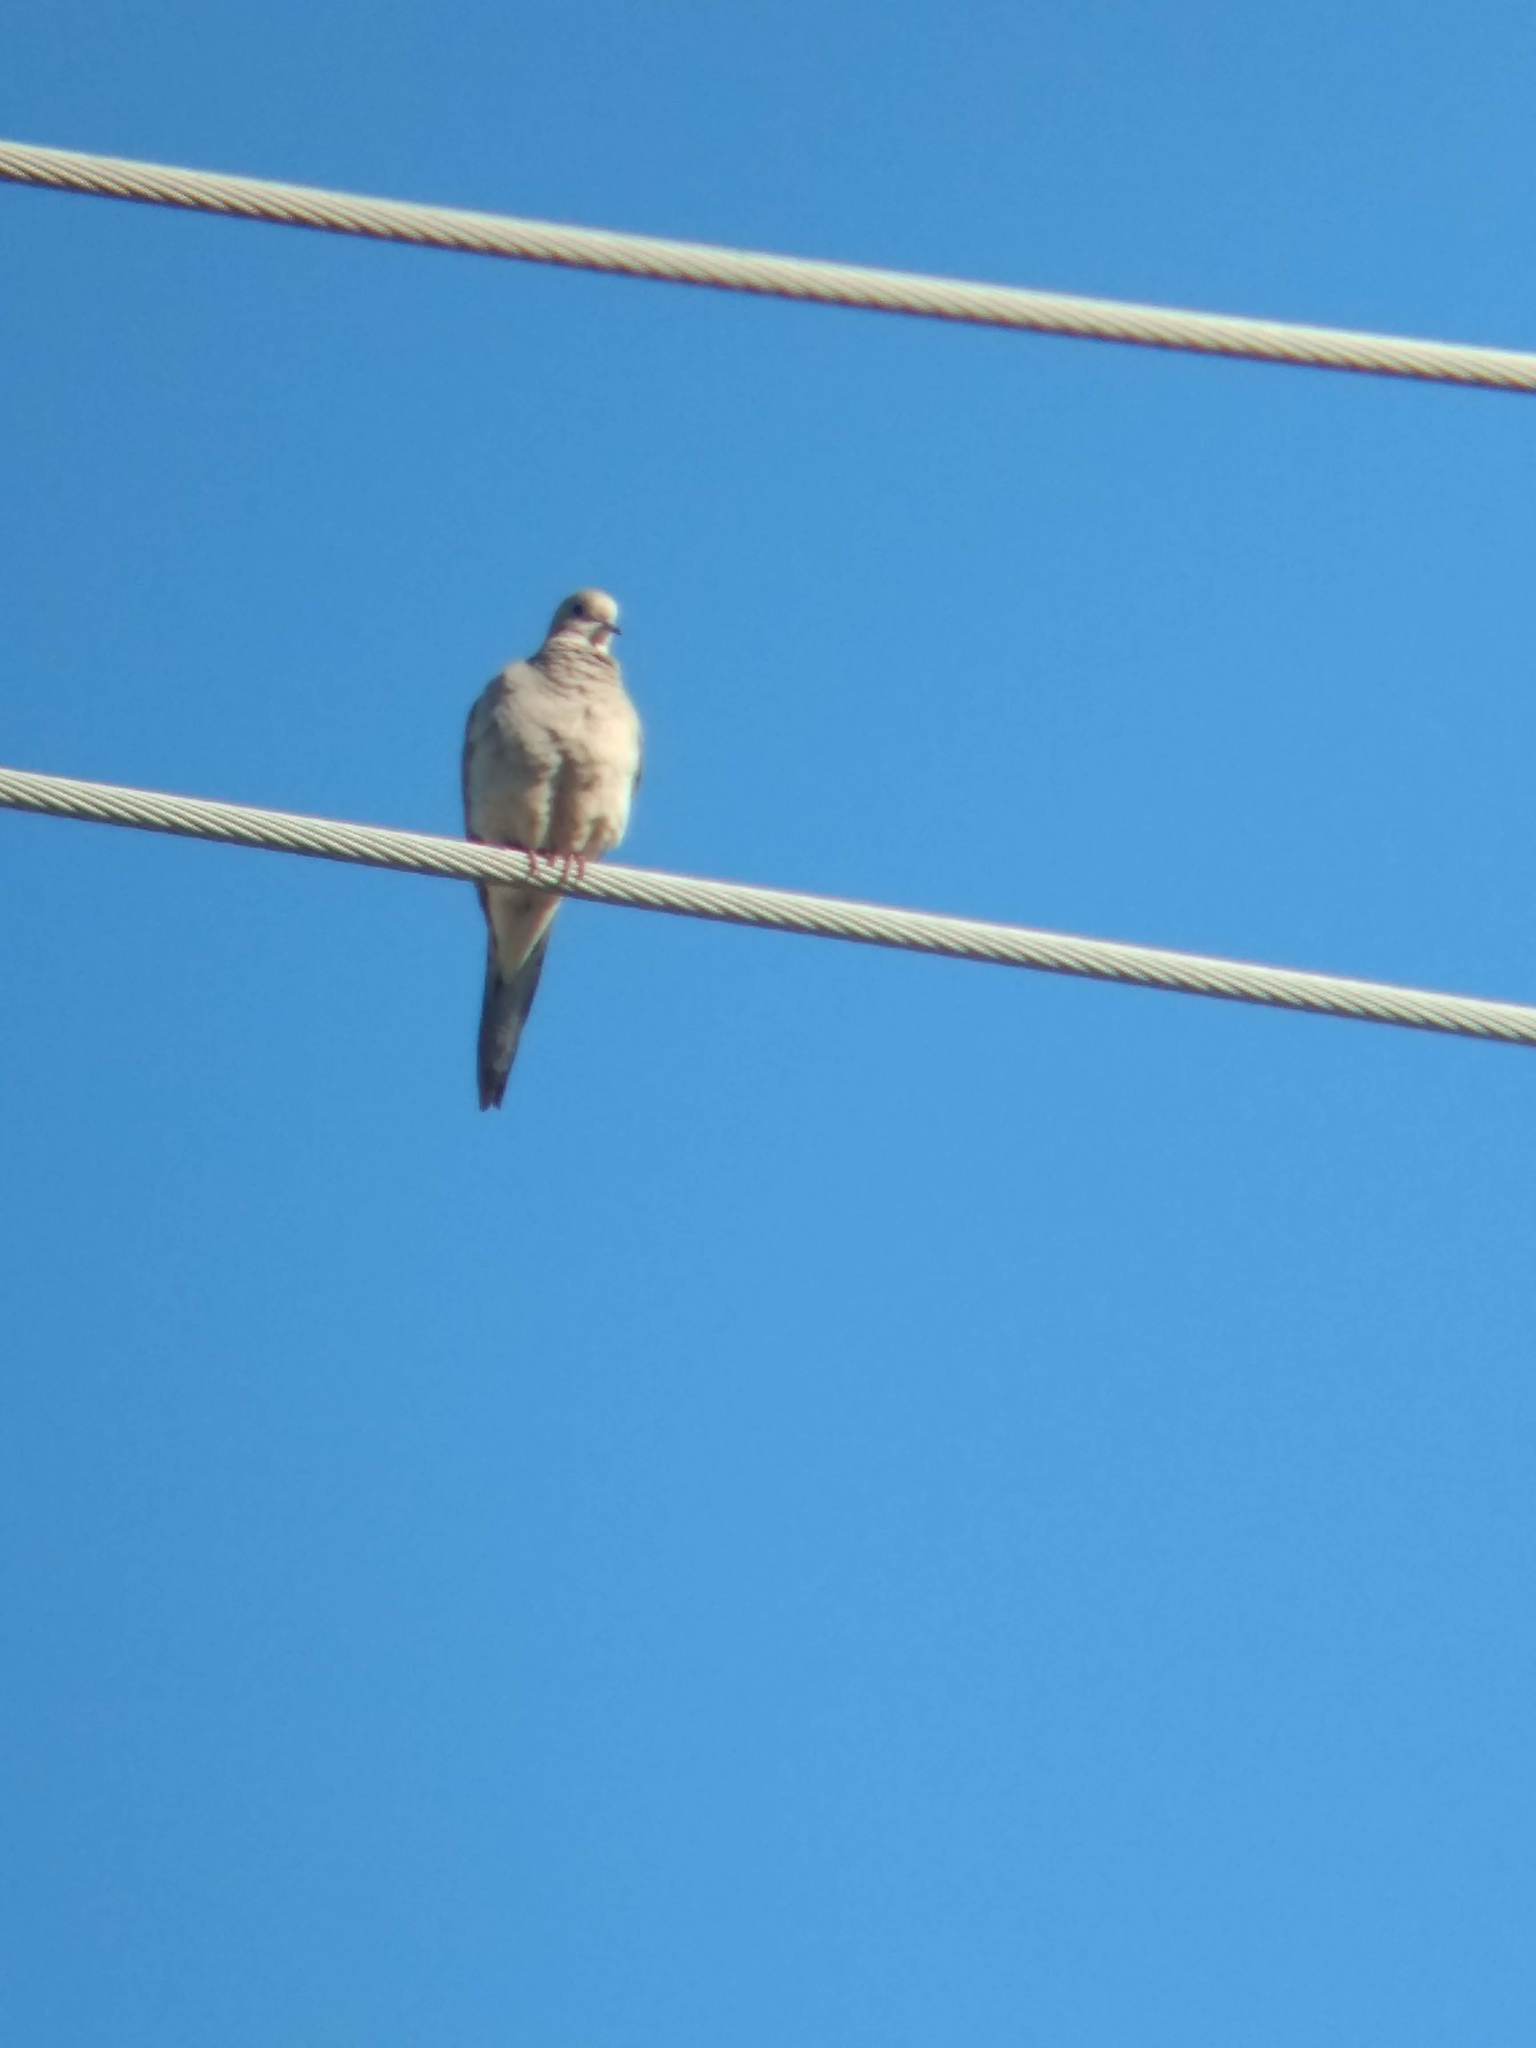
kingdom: Animalia
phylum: Chordata
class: Aves
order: Columbiformes
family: Columbidae
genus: Zenaida
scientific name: Zenaida macroura
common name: Mourning dove
